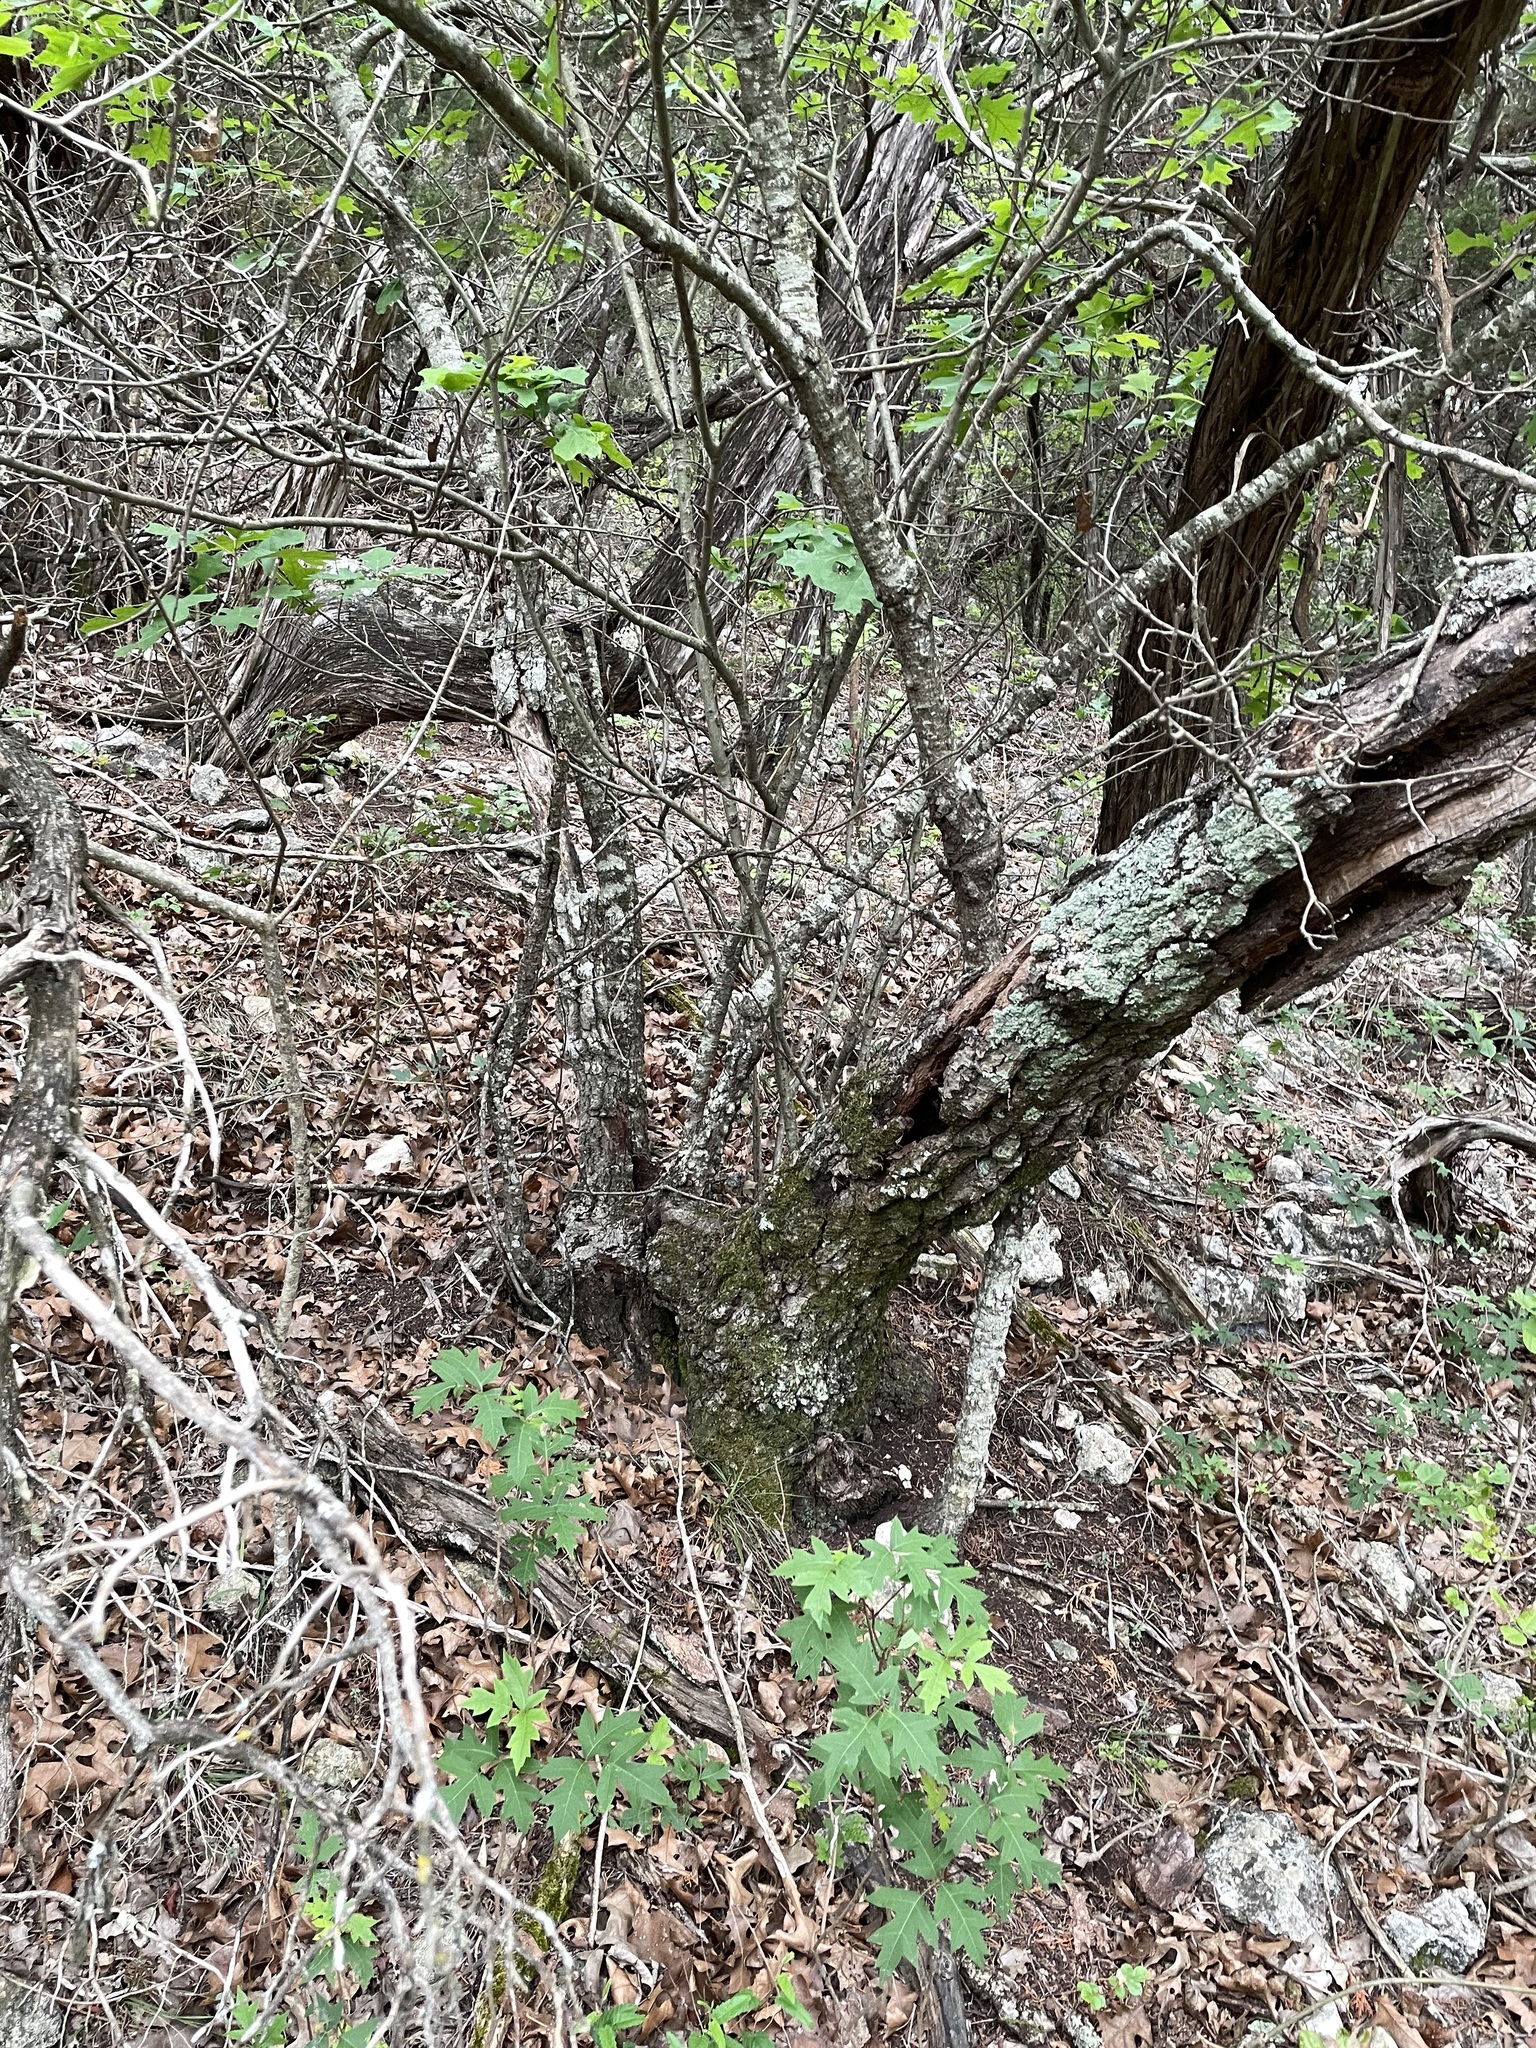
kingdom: Plantae
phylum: Tracheophyta
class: Magnoliopsida
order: Fagales
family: Fagaceae
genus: Quercus
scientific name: Quercus buckleyi
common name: Buckley oak
